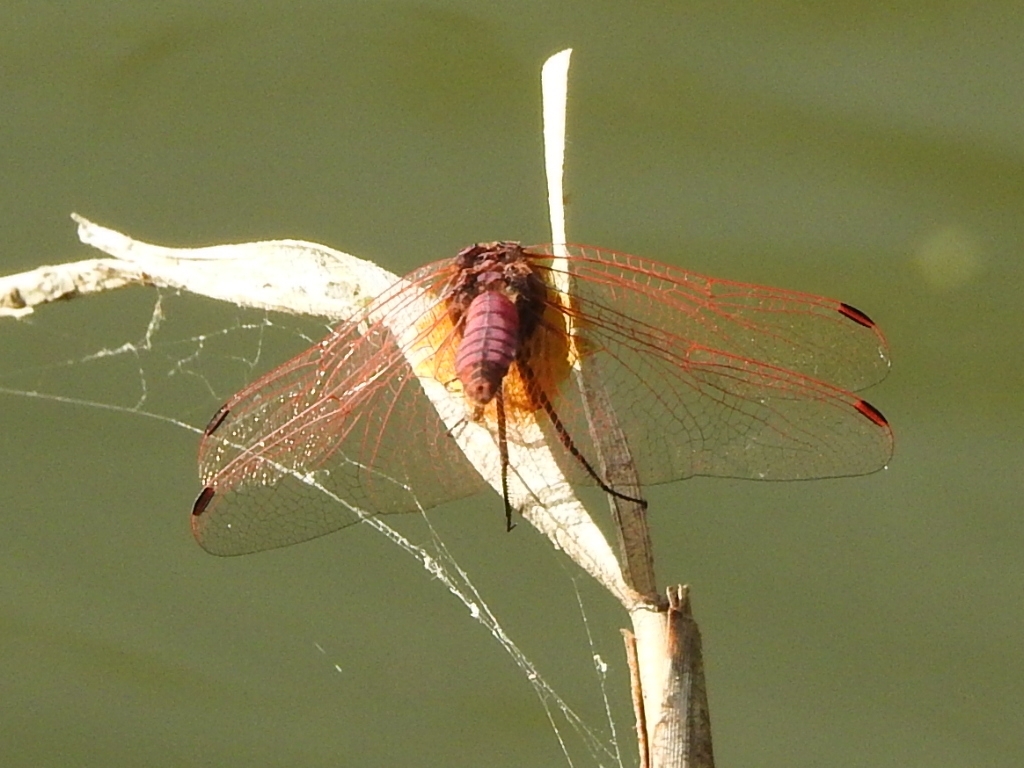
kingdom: Animalia
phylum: Arthropoda
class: Insecta
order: Odonata
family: Libellulidae
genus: Trithemis
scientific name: Trithemis annulata
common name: Violet dropwing
